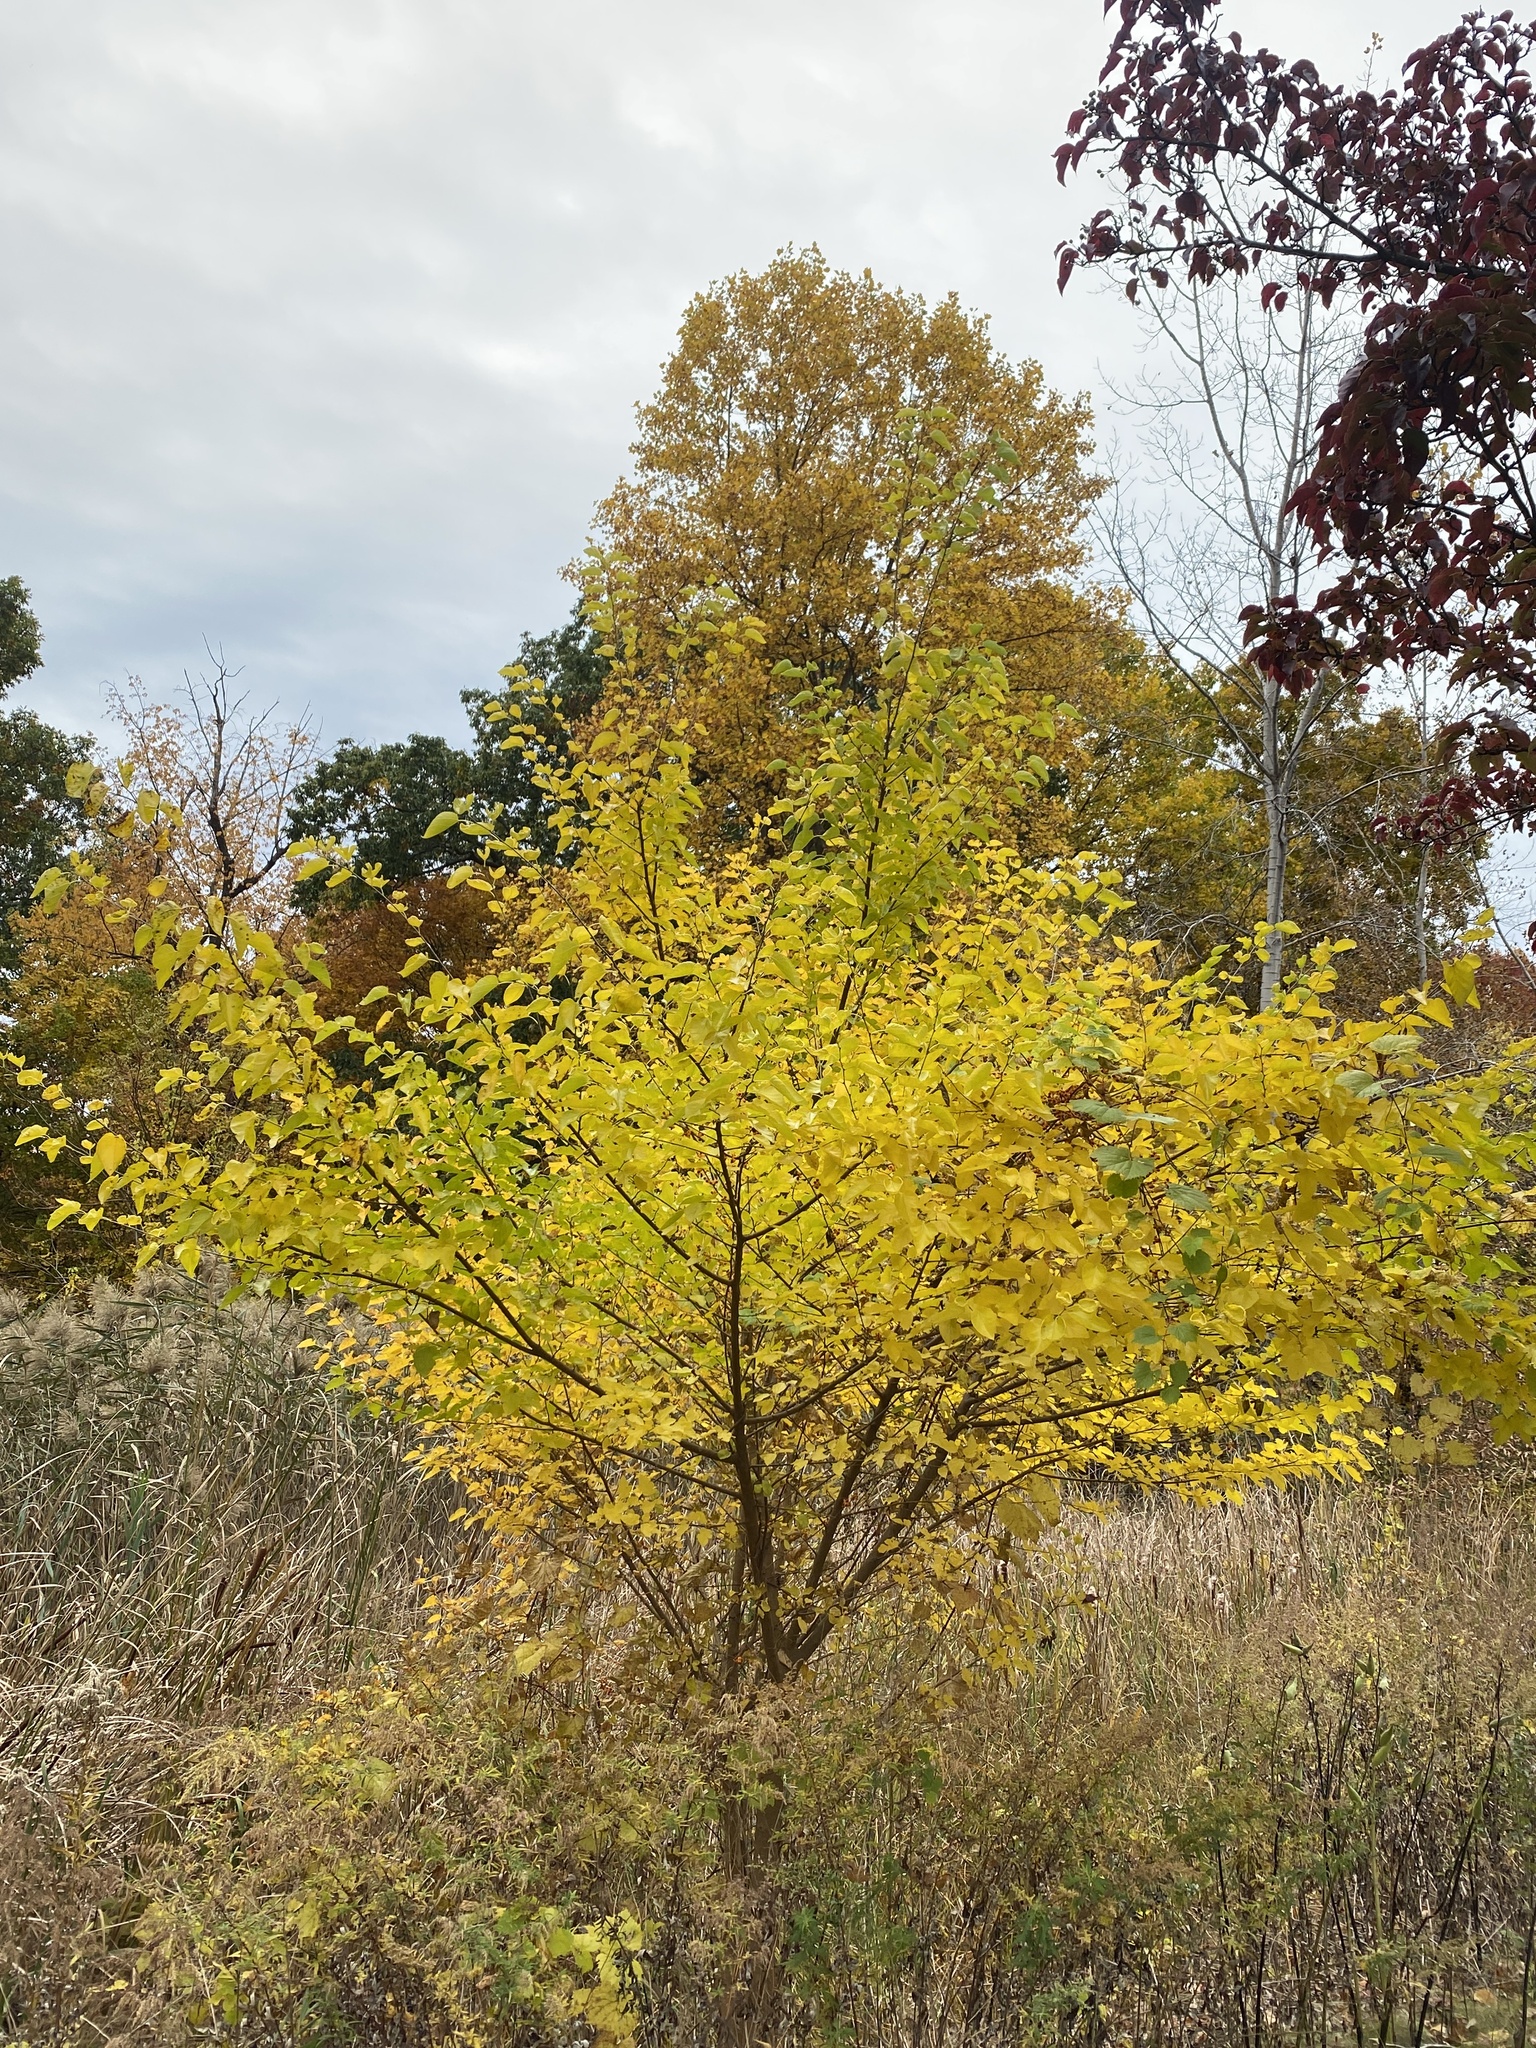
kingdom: Plantae
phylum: Tracheophyta
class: Magnoliopsida
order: Rosales
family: Moraceae
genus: Morus
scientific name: Morus alba
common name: White mulberry
